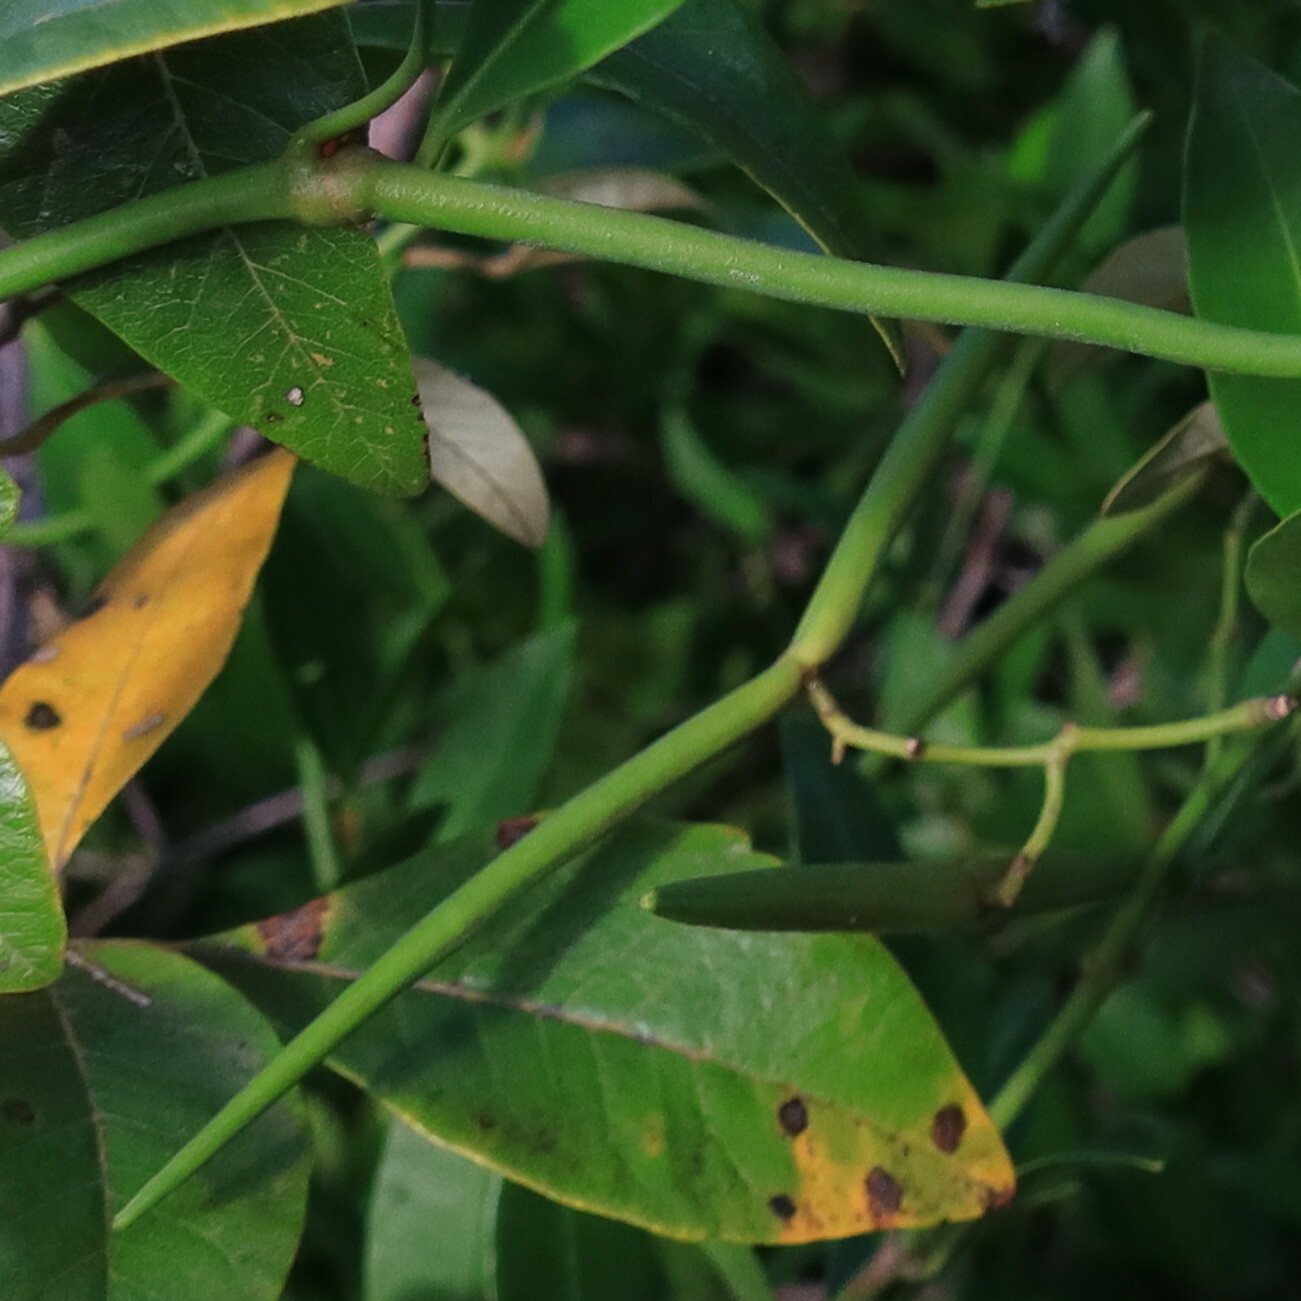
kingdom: Plantae
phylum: Tracheophyta
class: Magnoliopsida
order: Gentianales
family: Apocynaceae
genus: Secamone
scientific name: Secamone alpini
